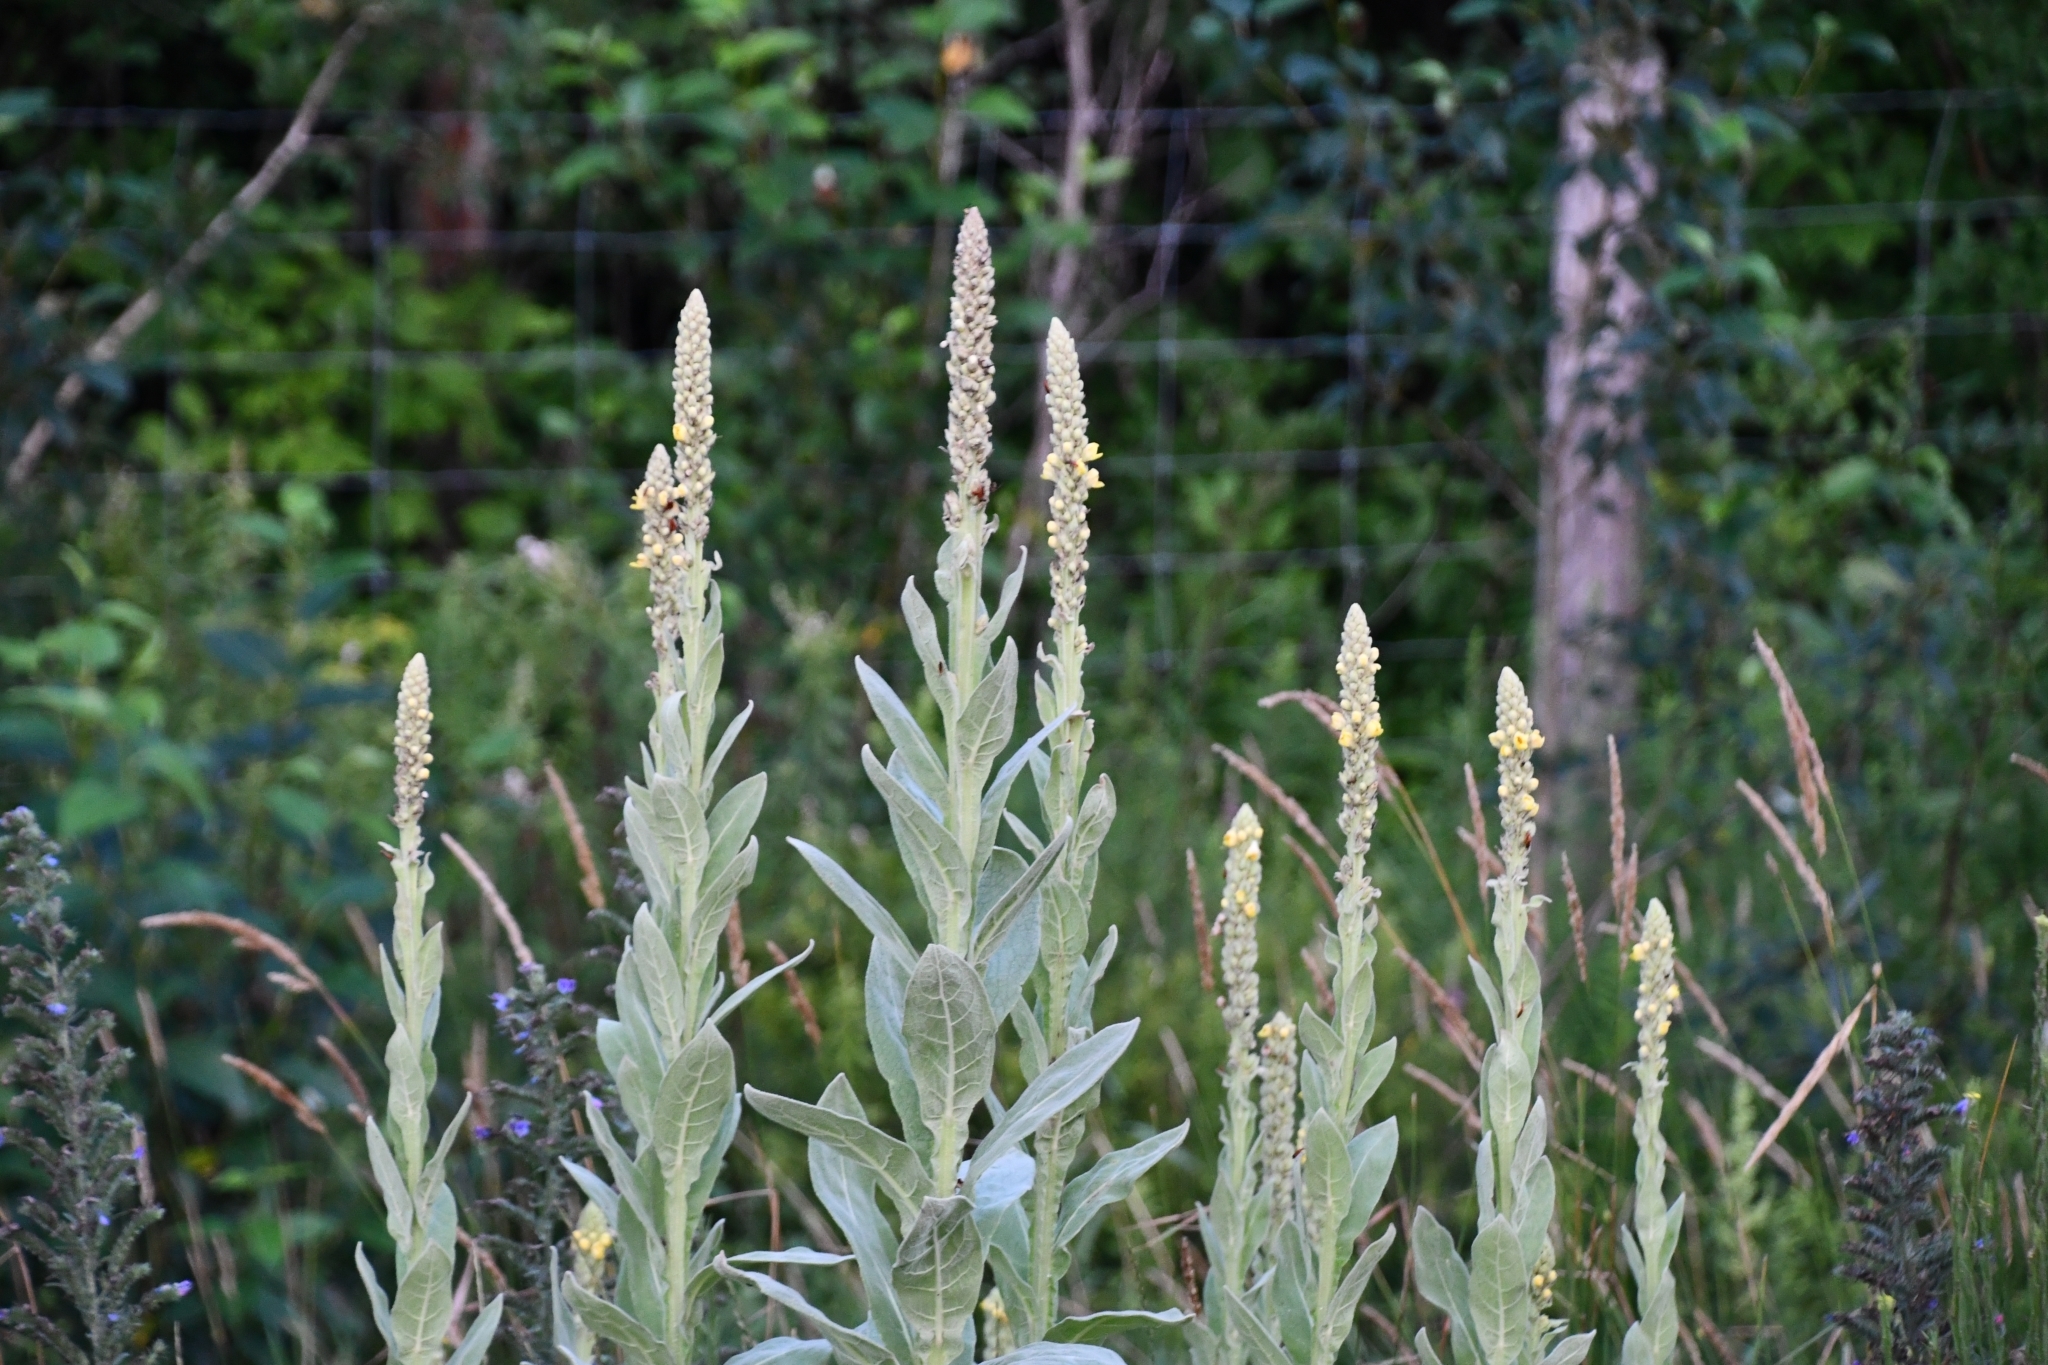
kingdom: Plantae
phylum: Tracheophyta
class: Magnoliopsida
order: Lamiales
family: Scrophulariaceae
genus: Verbascum
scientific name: Verbascum thapsus
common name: Common mullein
